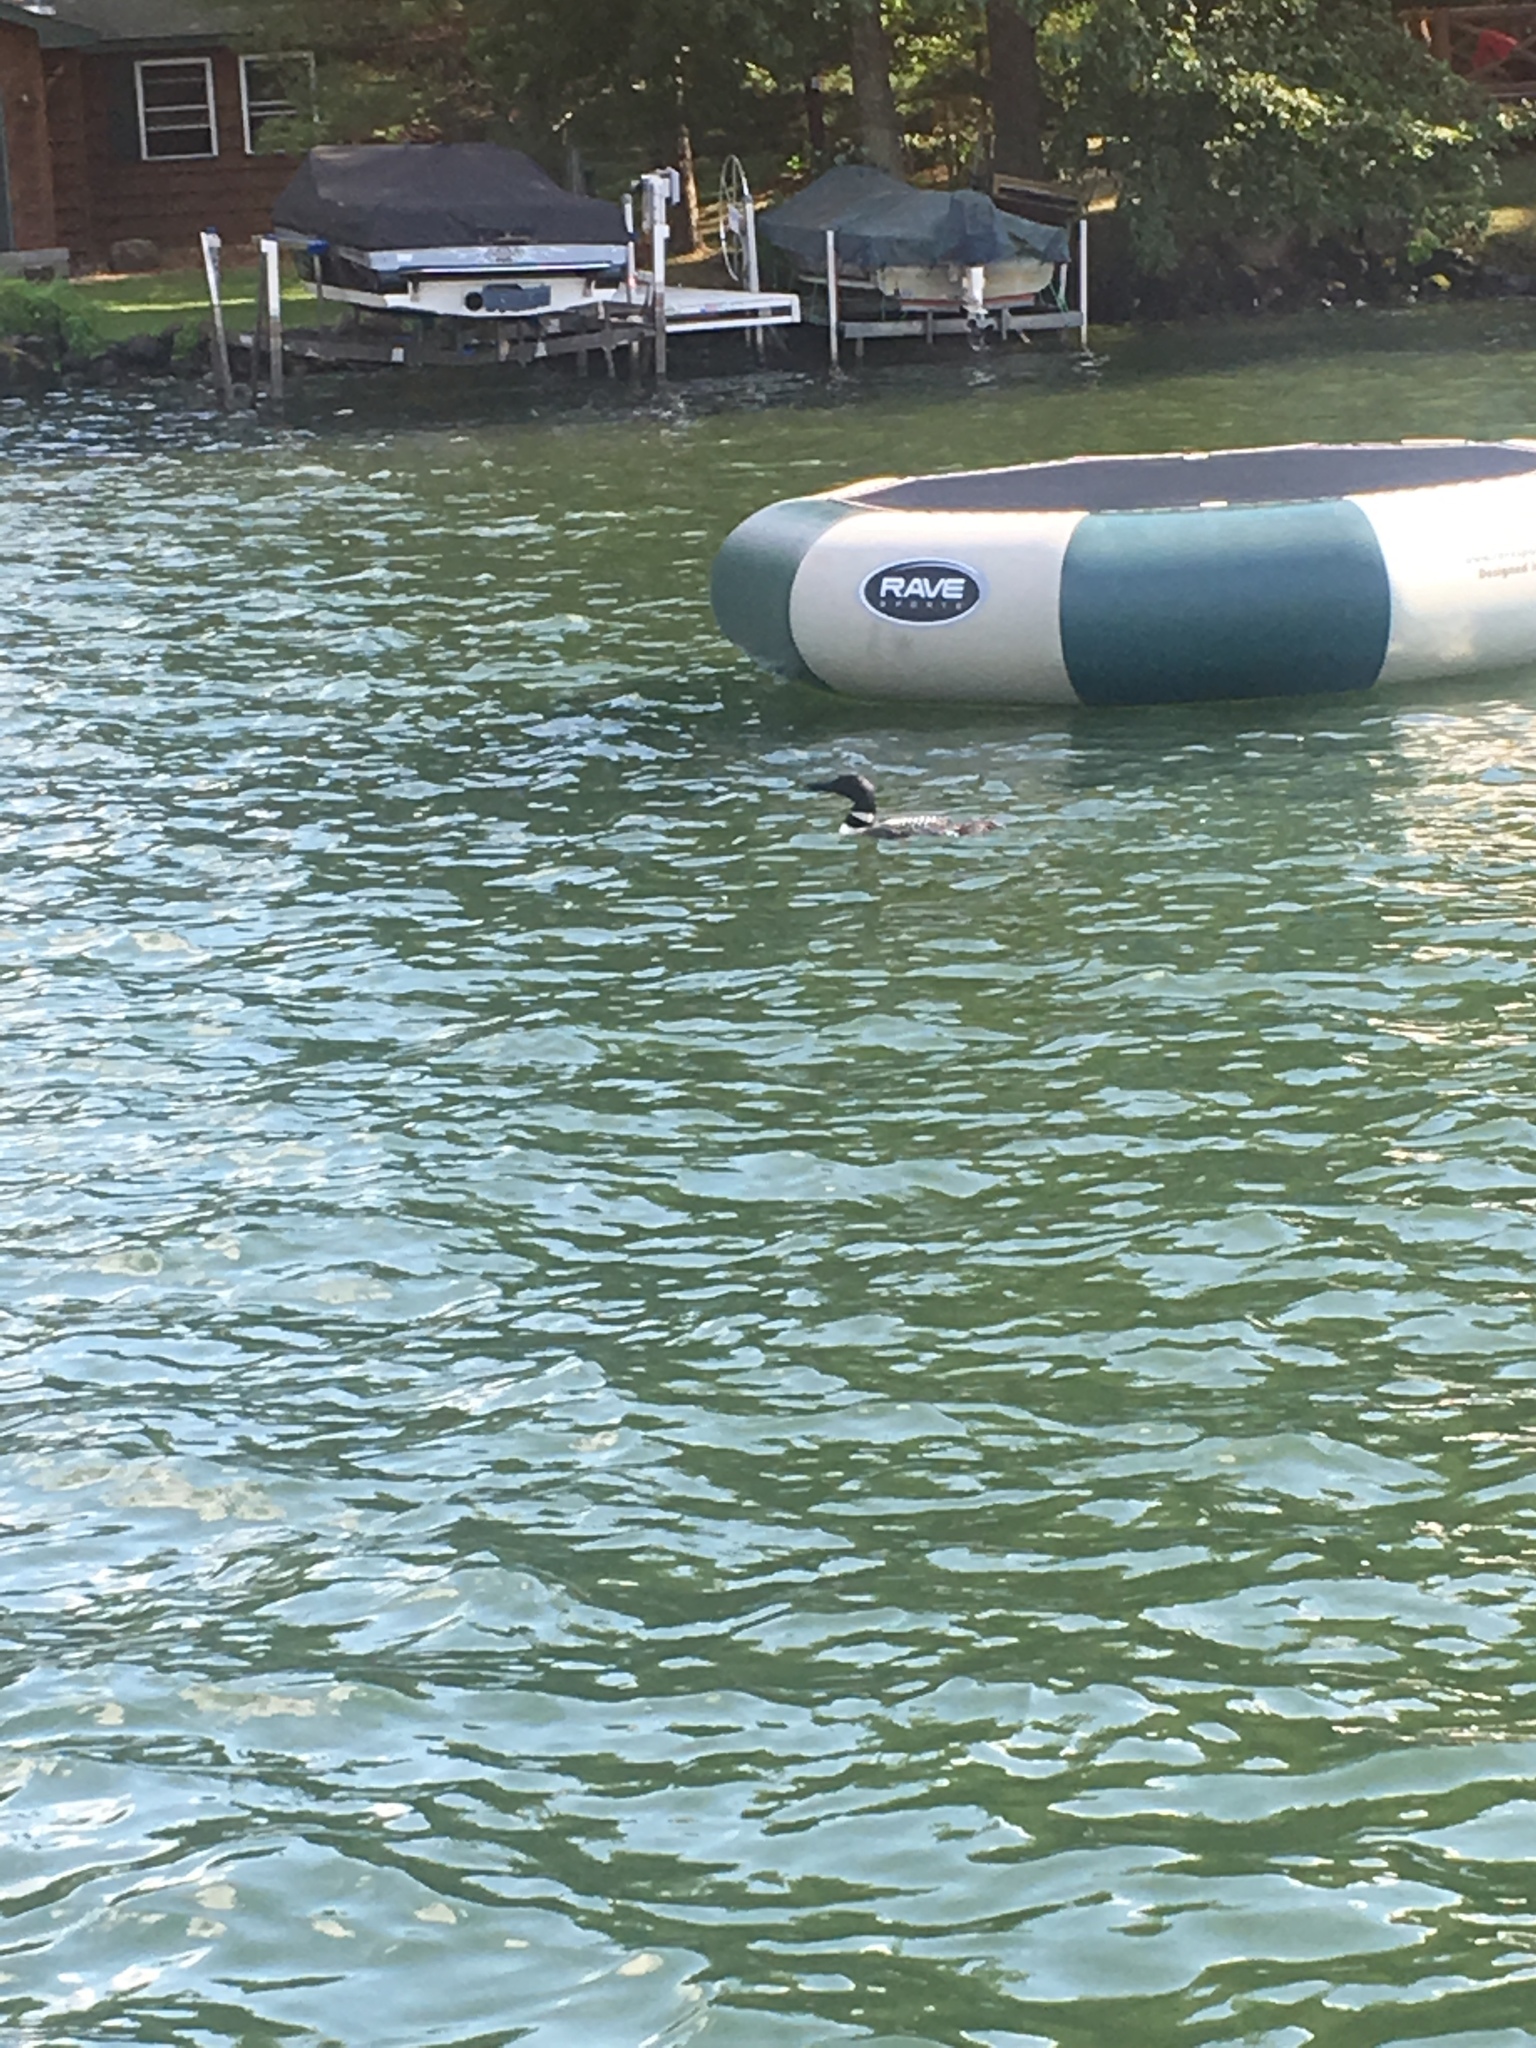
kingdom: Animalia
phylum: Chordata
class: Aves
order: Gaviiformes
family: Gaviidae
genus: Gavia
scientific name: Gavia immer
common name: Common loon
